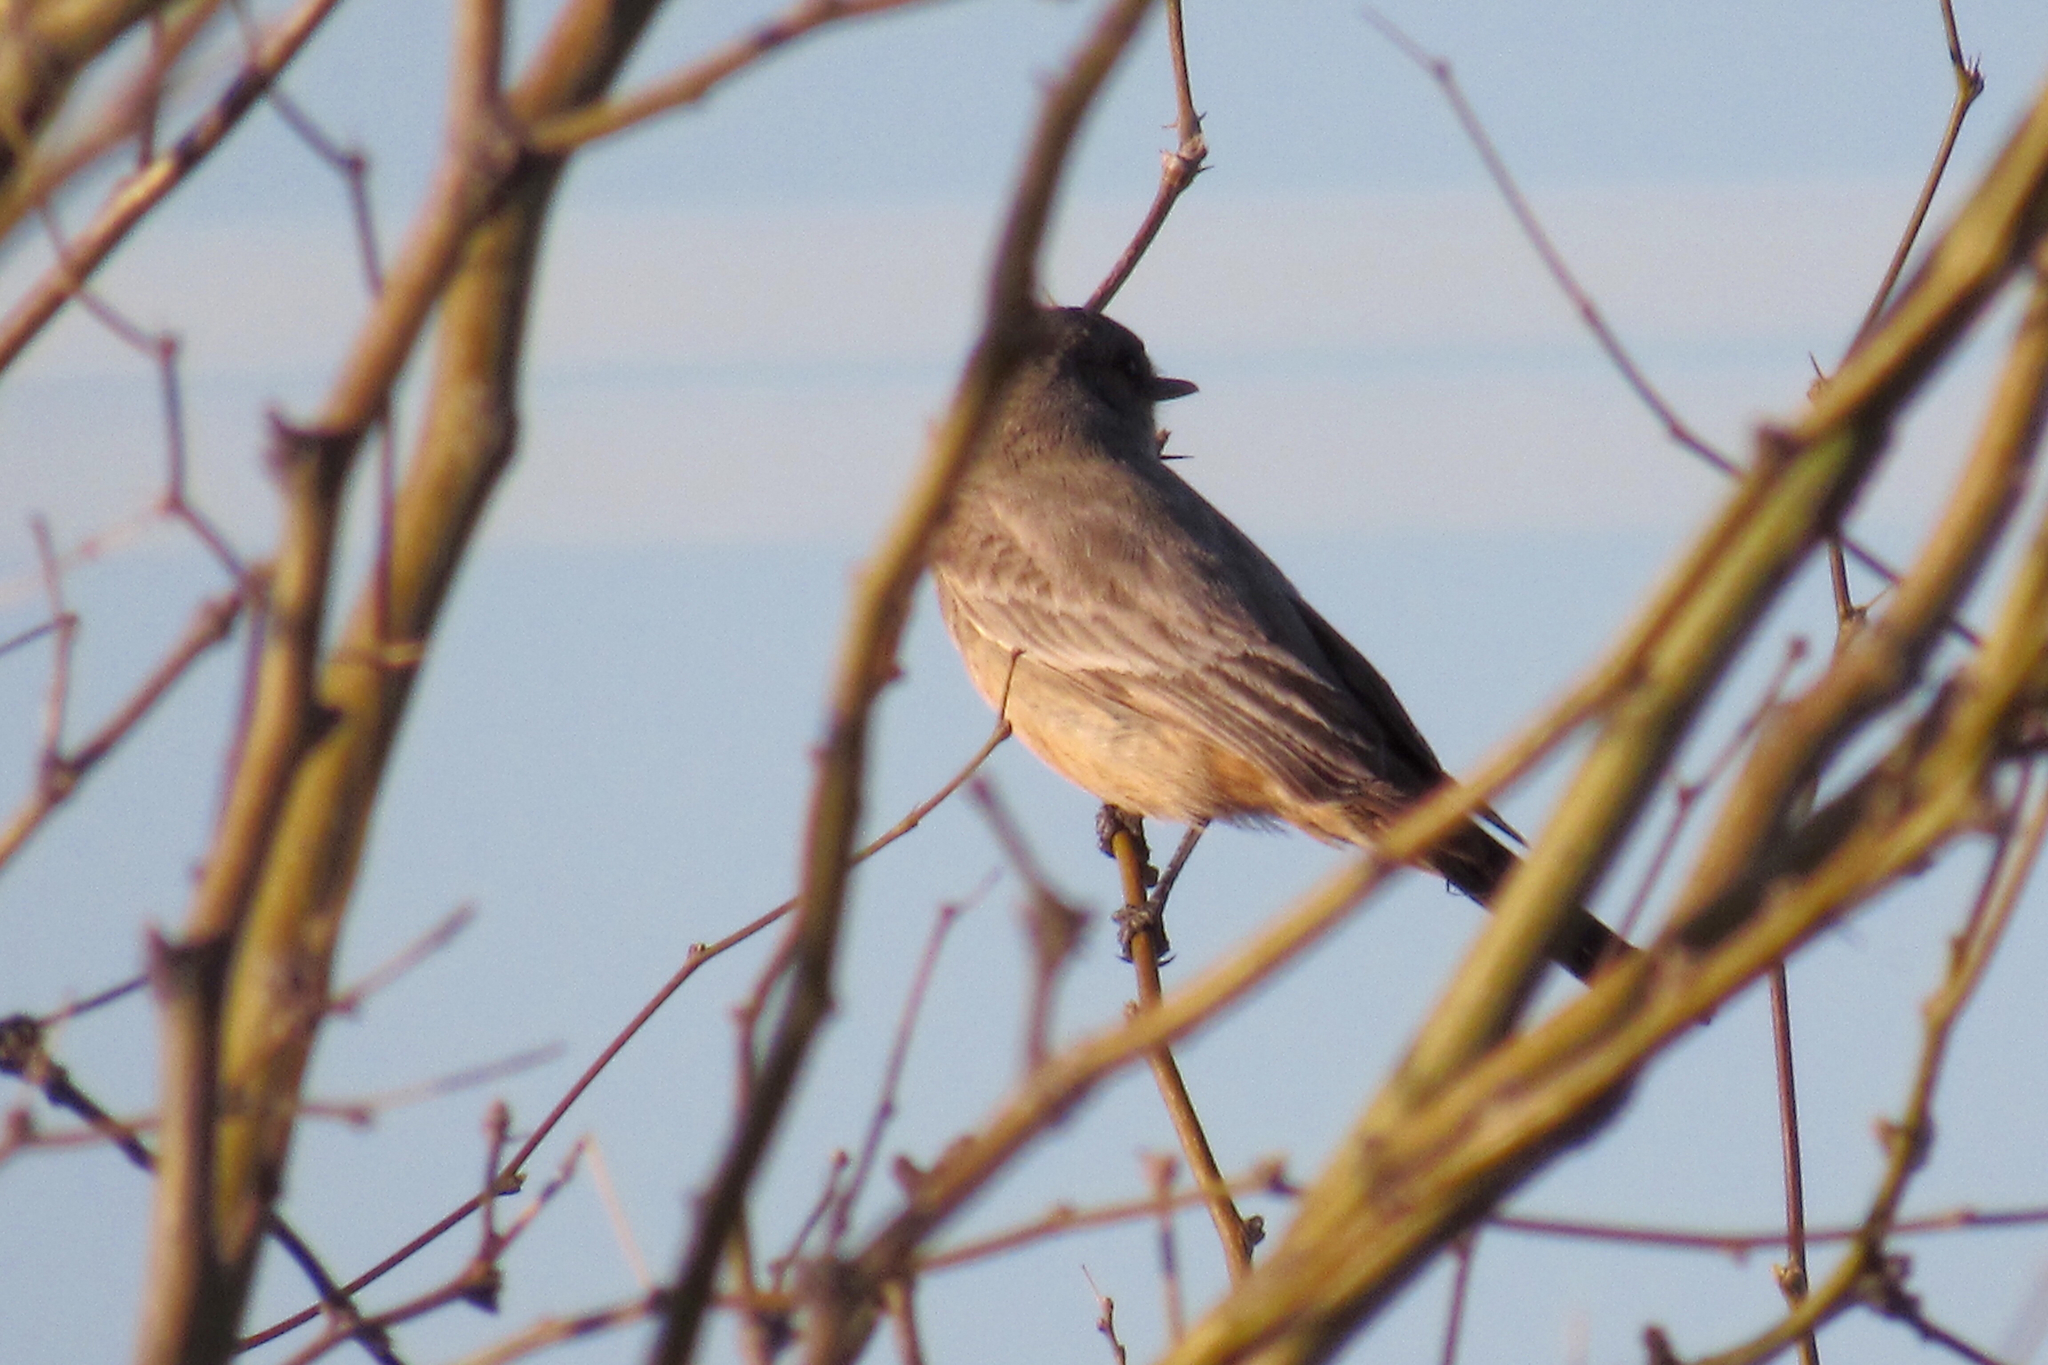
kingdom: Animalia
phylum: Chordata
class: Aves
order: Passeriformes
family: Tyrannidae
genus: Sayornis
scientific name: Sayornis saya
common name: Say's phoebe
